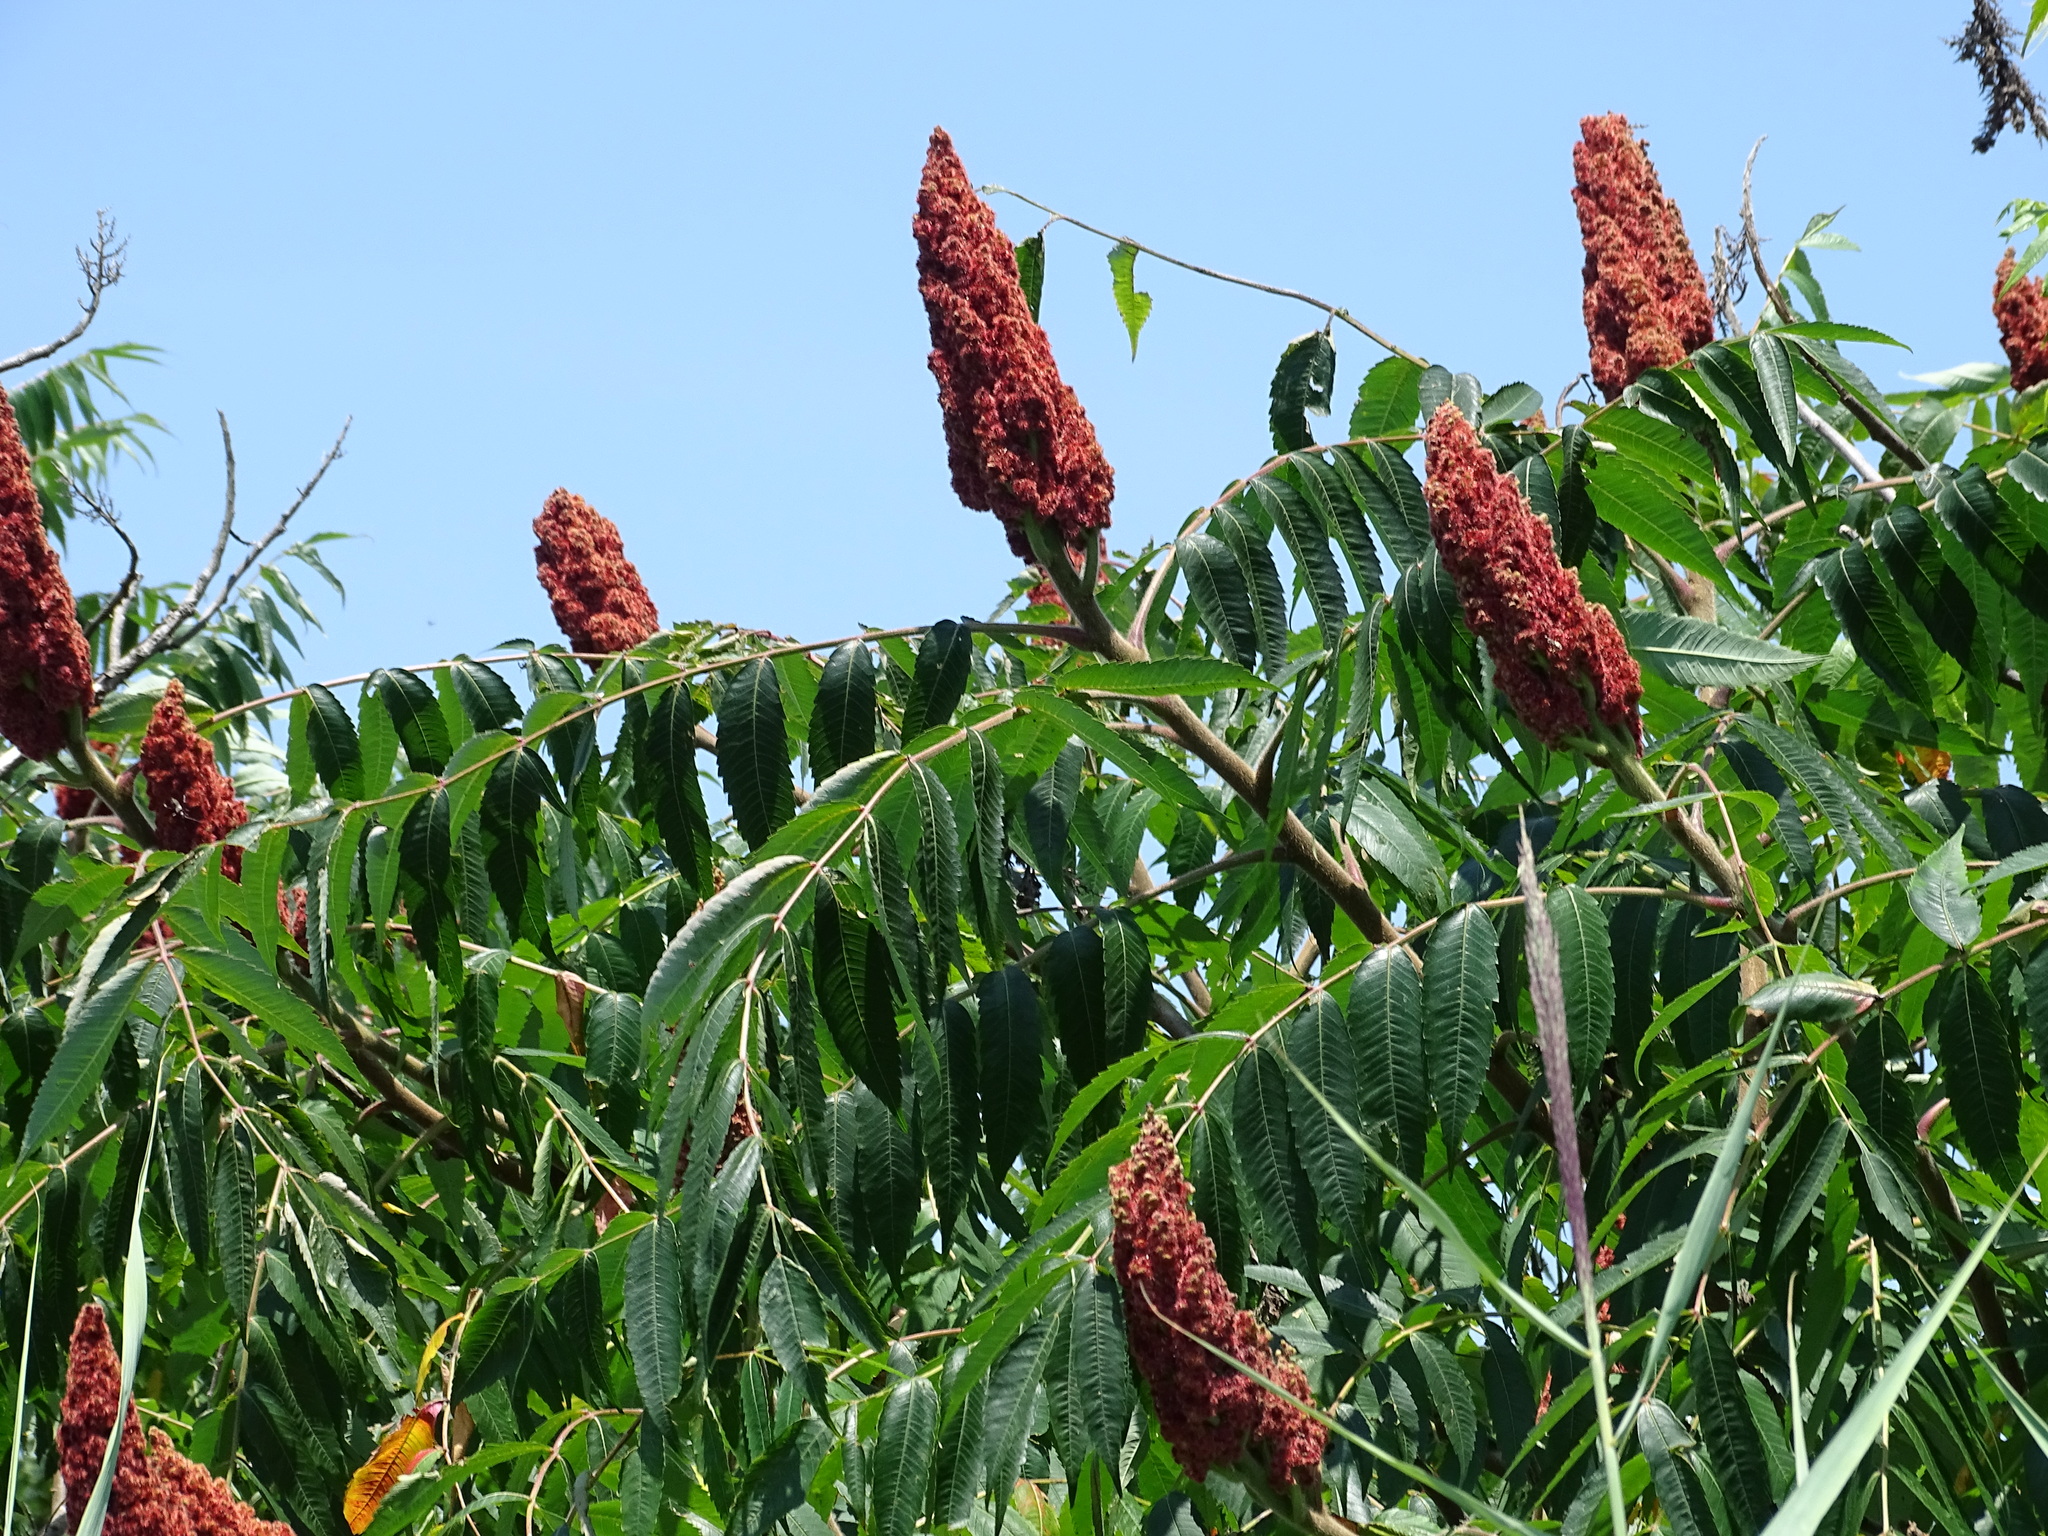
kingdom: Plantae
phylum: Tracheophyta
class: Magnoliopsida
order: Sapindales
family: Anacardiaceae
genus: Rhus
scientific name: Rhus typhina
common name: Staghorn sumac
